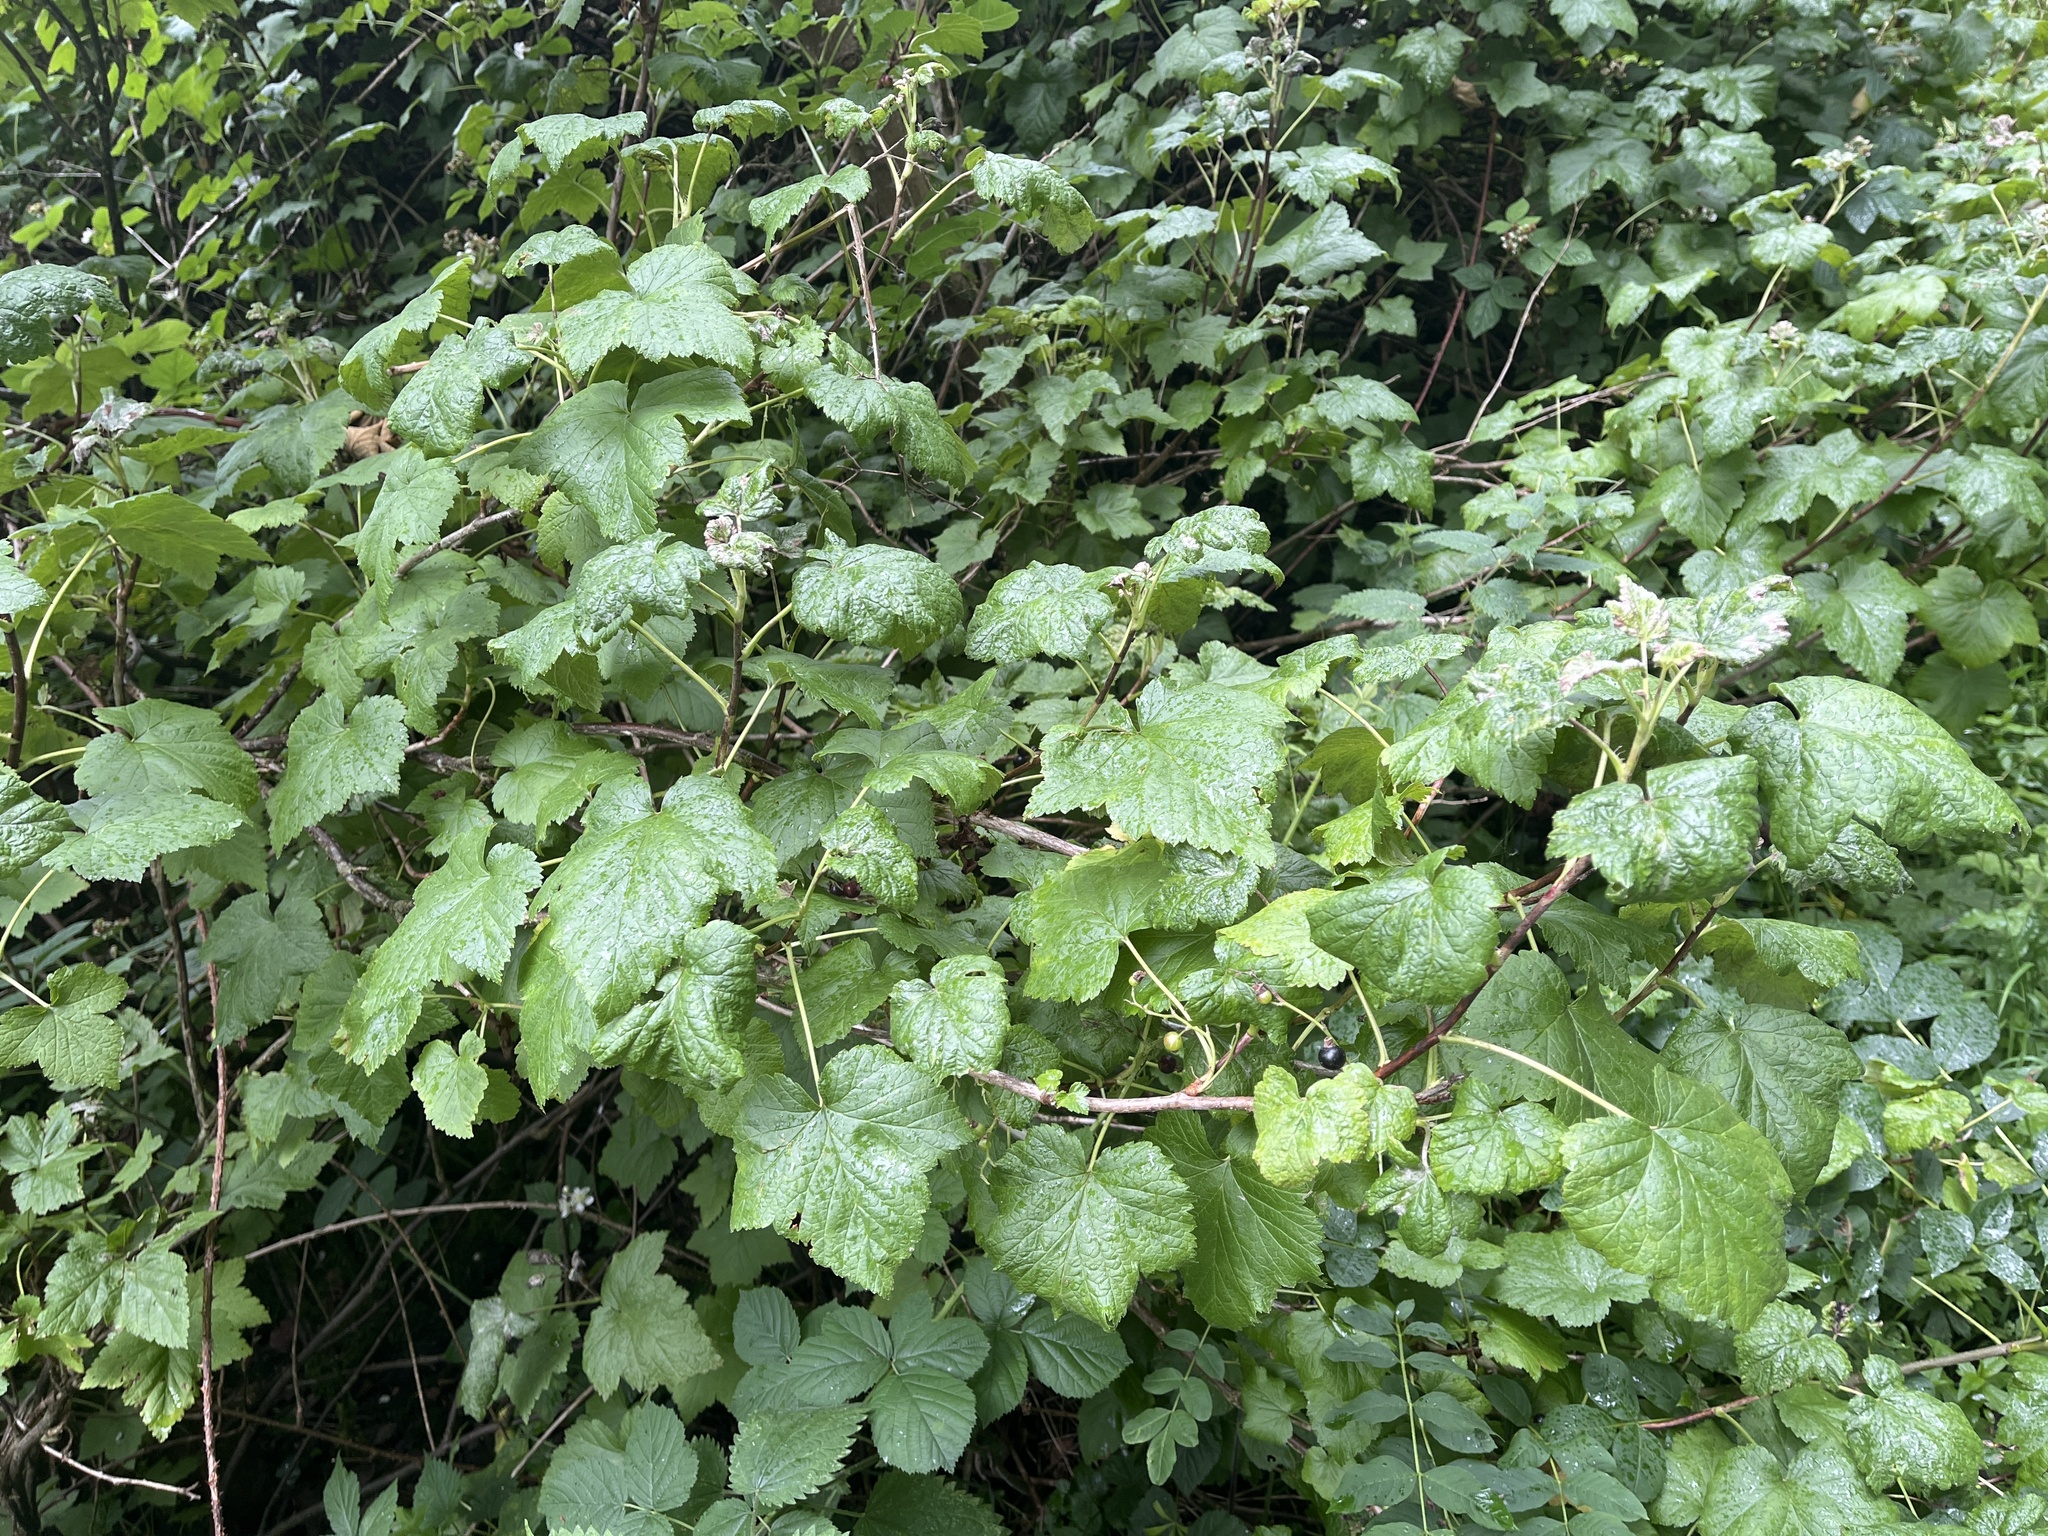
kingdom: Plantae
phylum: Tracheophyta
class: Magnoliopsida
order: Saxifragales
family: Grossulariaceae
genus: Ribes
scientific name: Ribes nigrum
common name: Black currant
